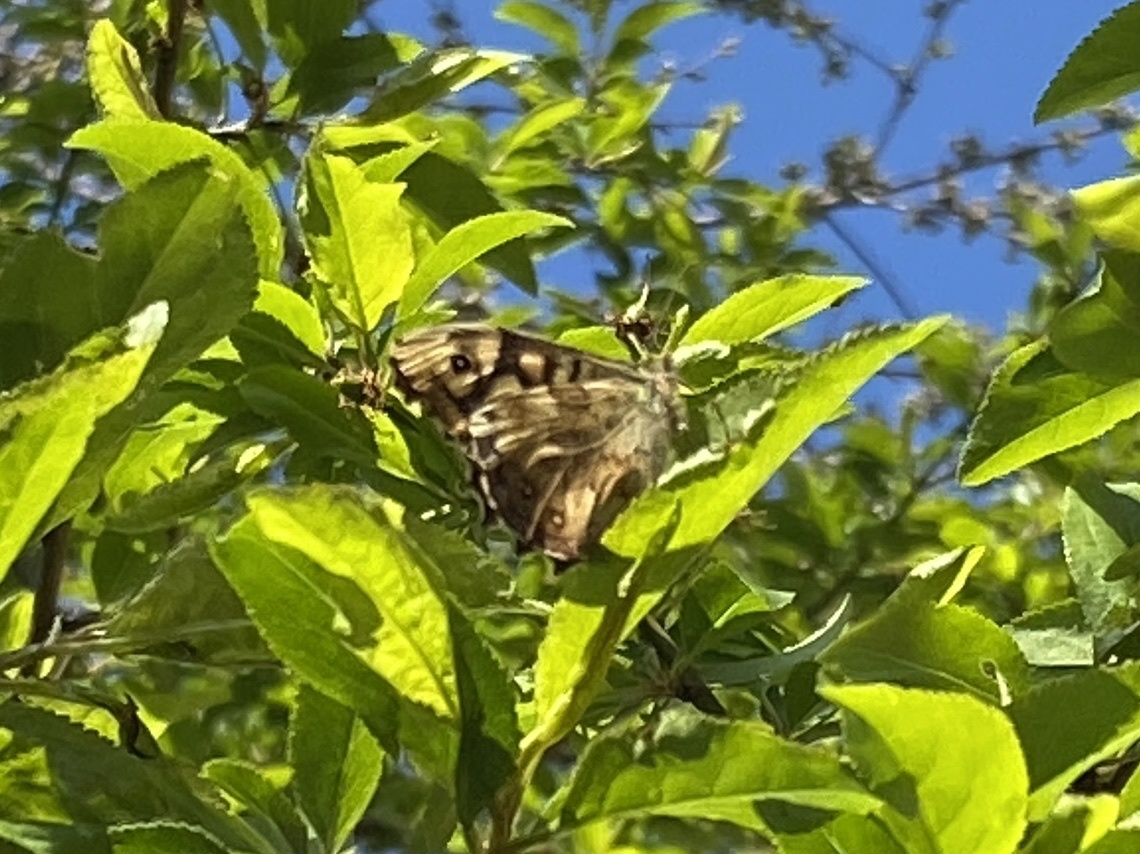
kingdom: Animalia
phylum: Arthropoda
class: Insecta
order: Lepidoptera
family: Nymphalidae
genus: Pararge
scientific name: Pararge aegeria
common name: Speckled wood
